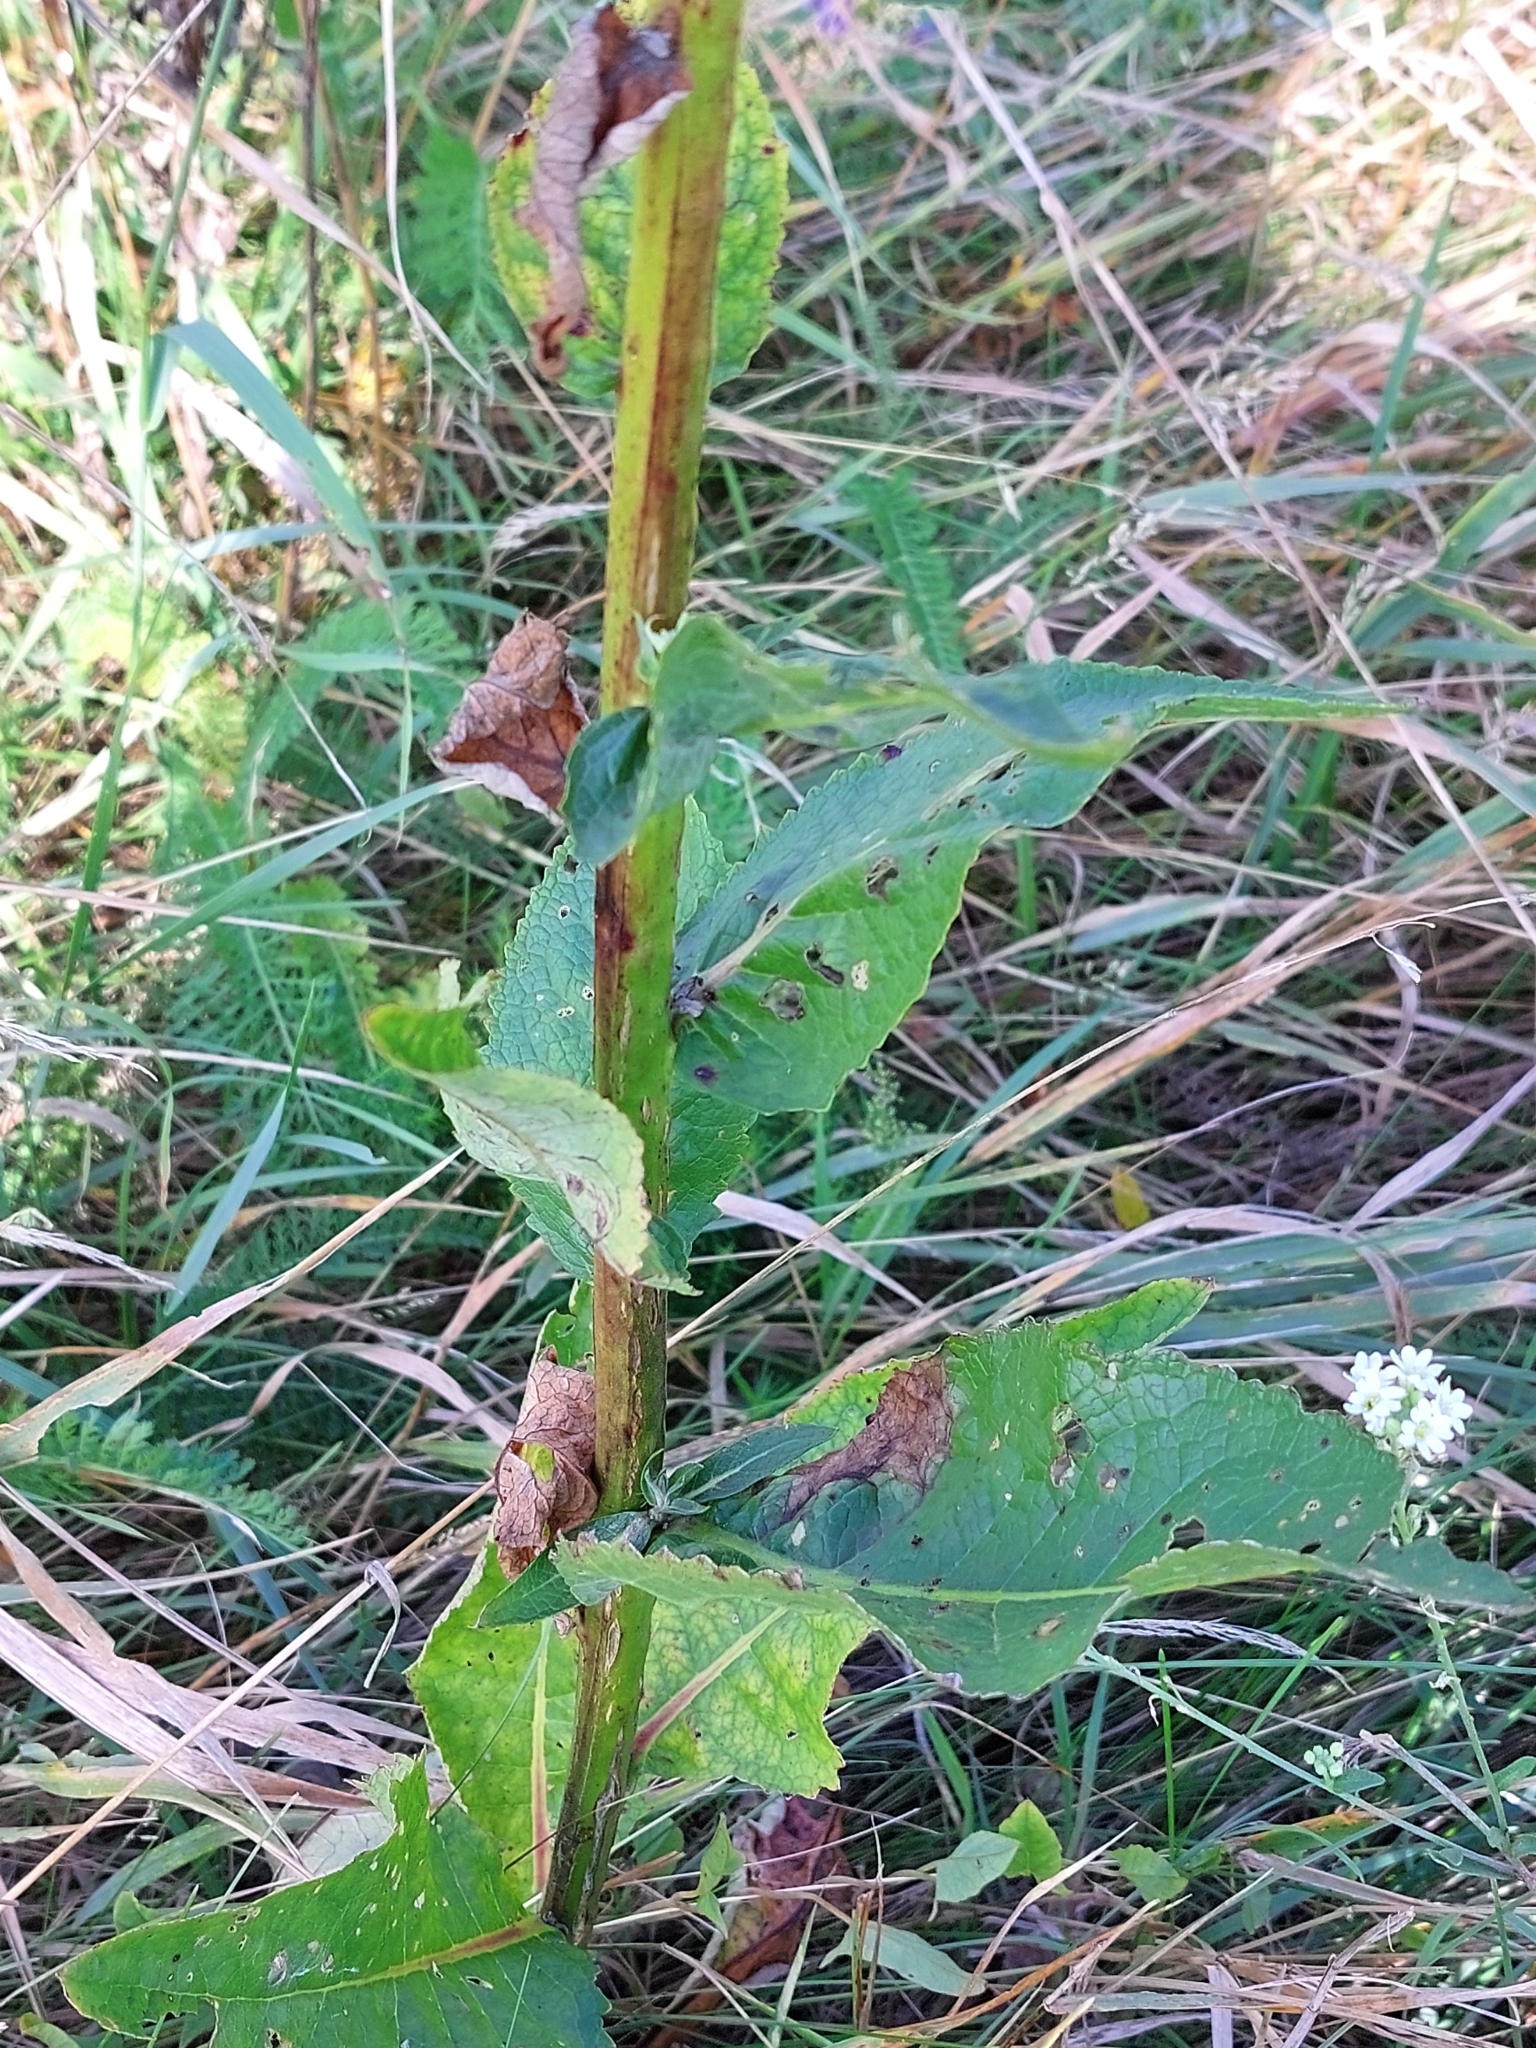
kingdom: Plantae
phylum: Tracheophyta
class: Magnoliopsida
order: Lamiales
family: Scrophulariaceae
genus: Verbascum
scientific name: Verbascum lychnitis
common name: White mullein
